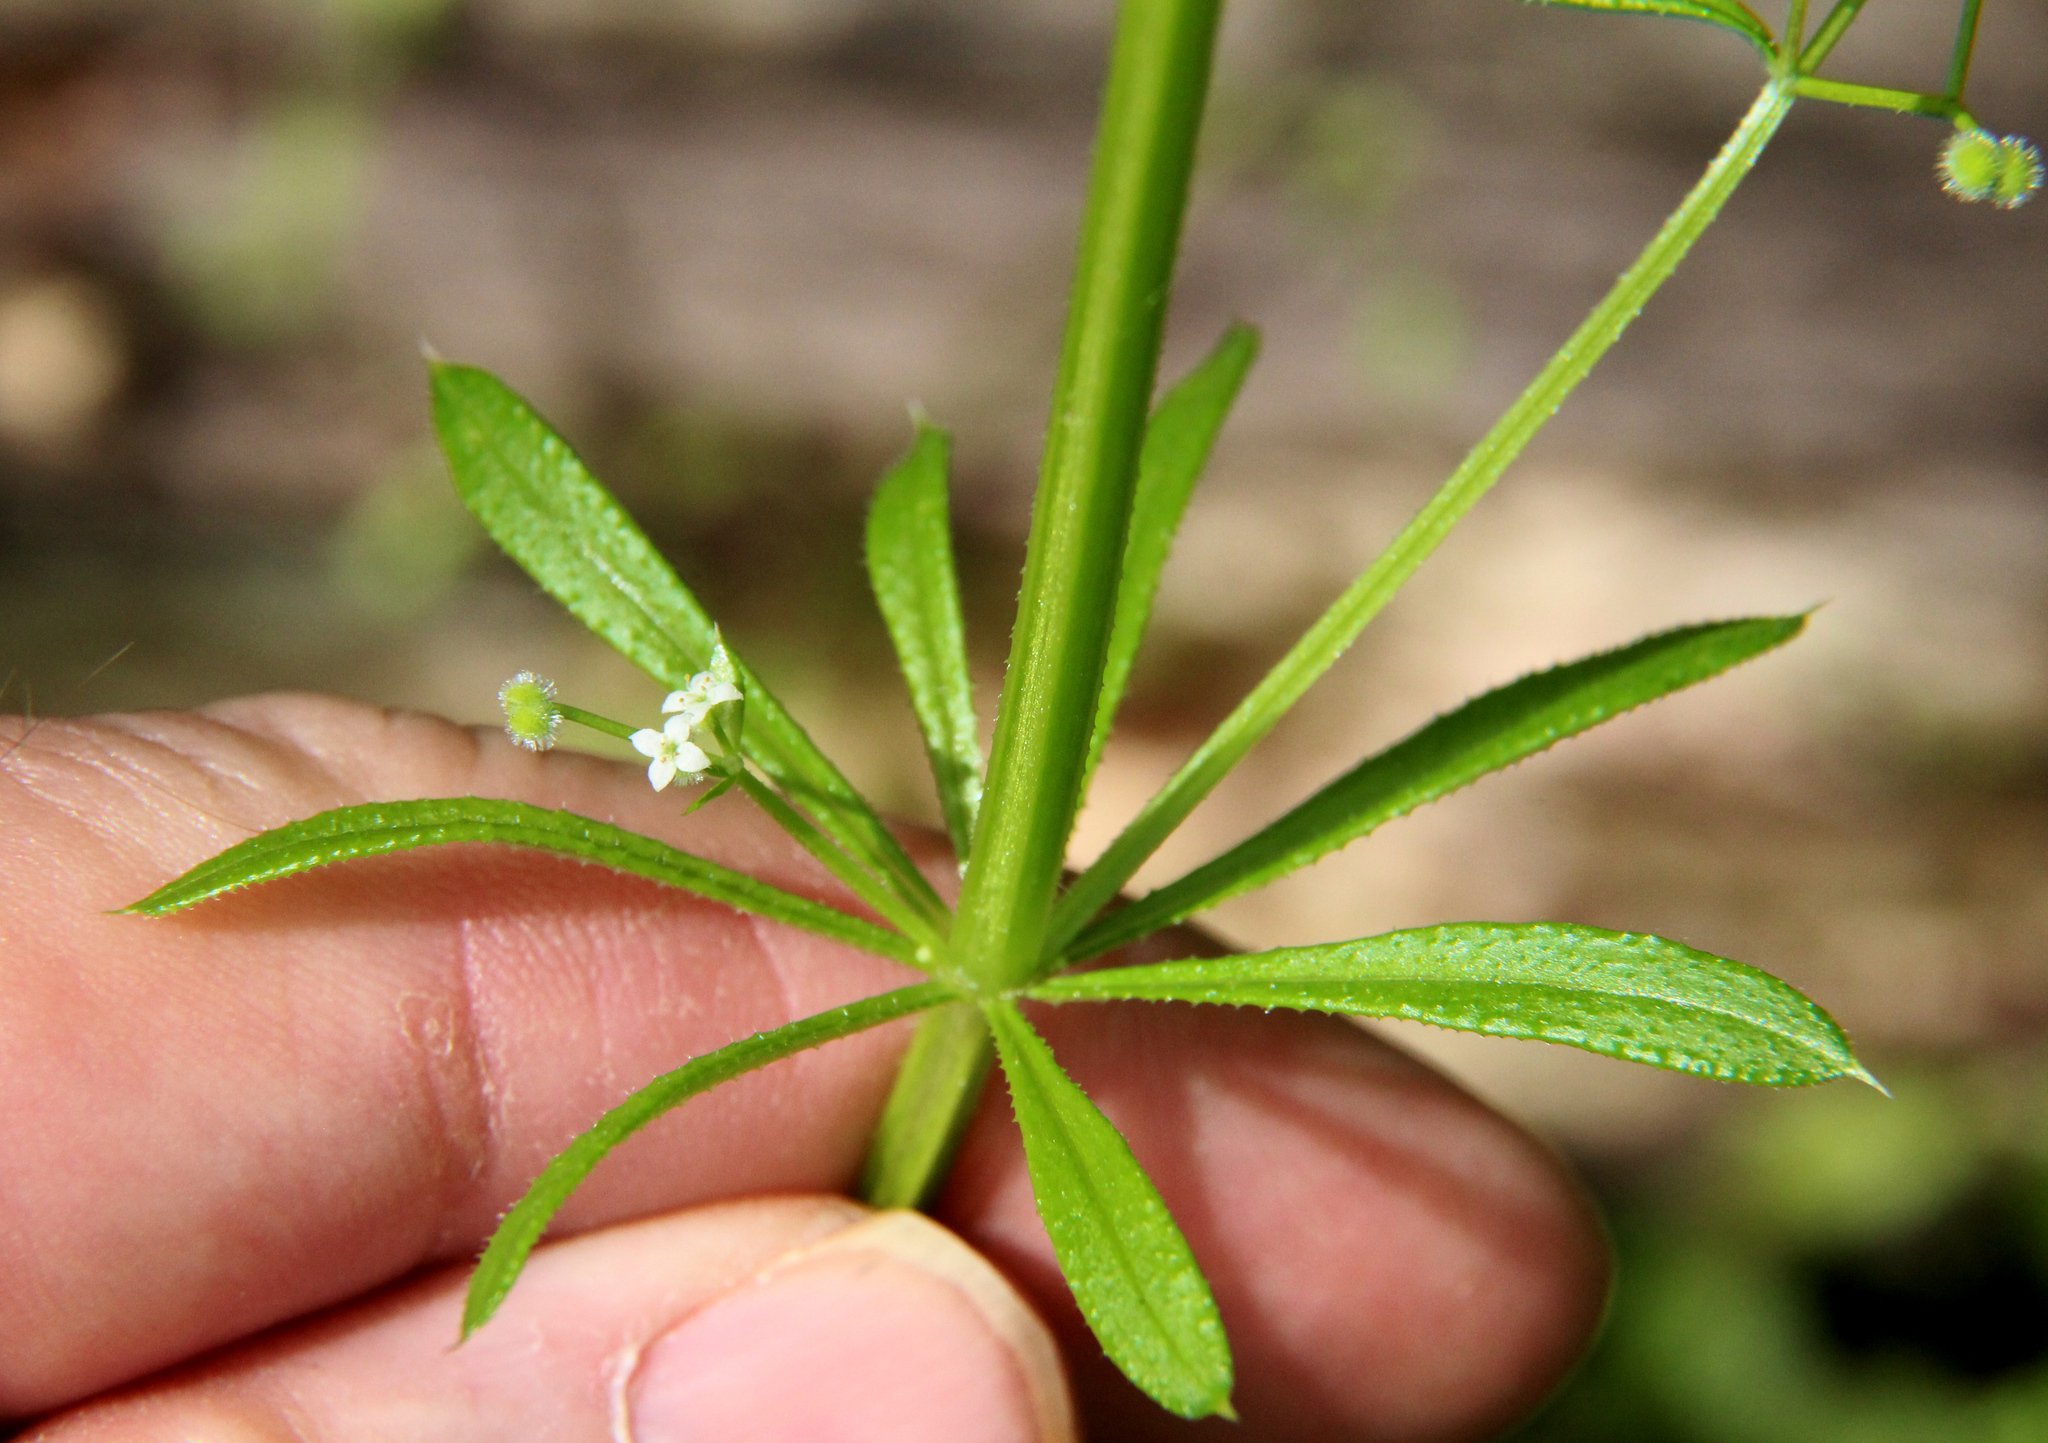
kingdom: Plantae
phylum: Tracheophyta
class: Magnoliopsida
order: Gentianales
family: Rubiaceae
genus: Galium
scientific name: Galium aparine
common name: Cleavers
